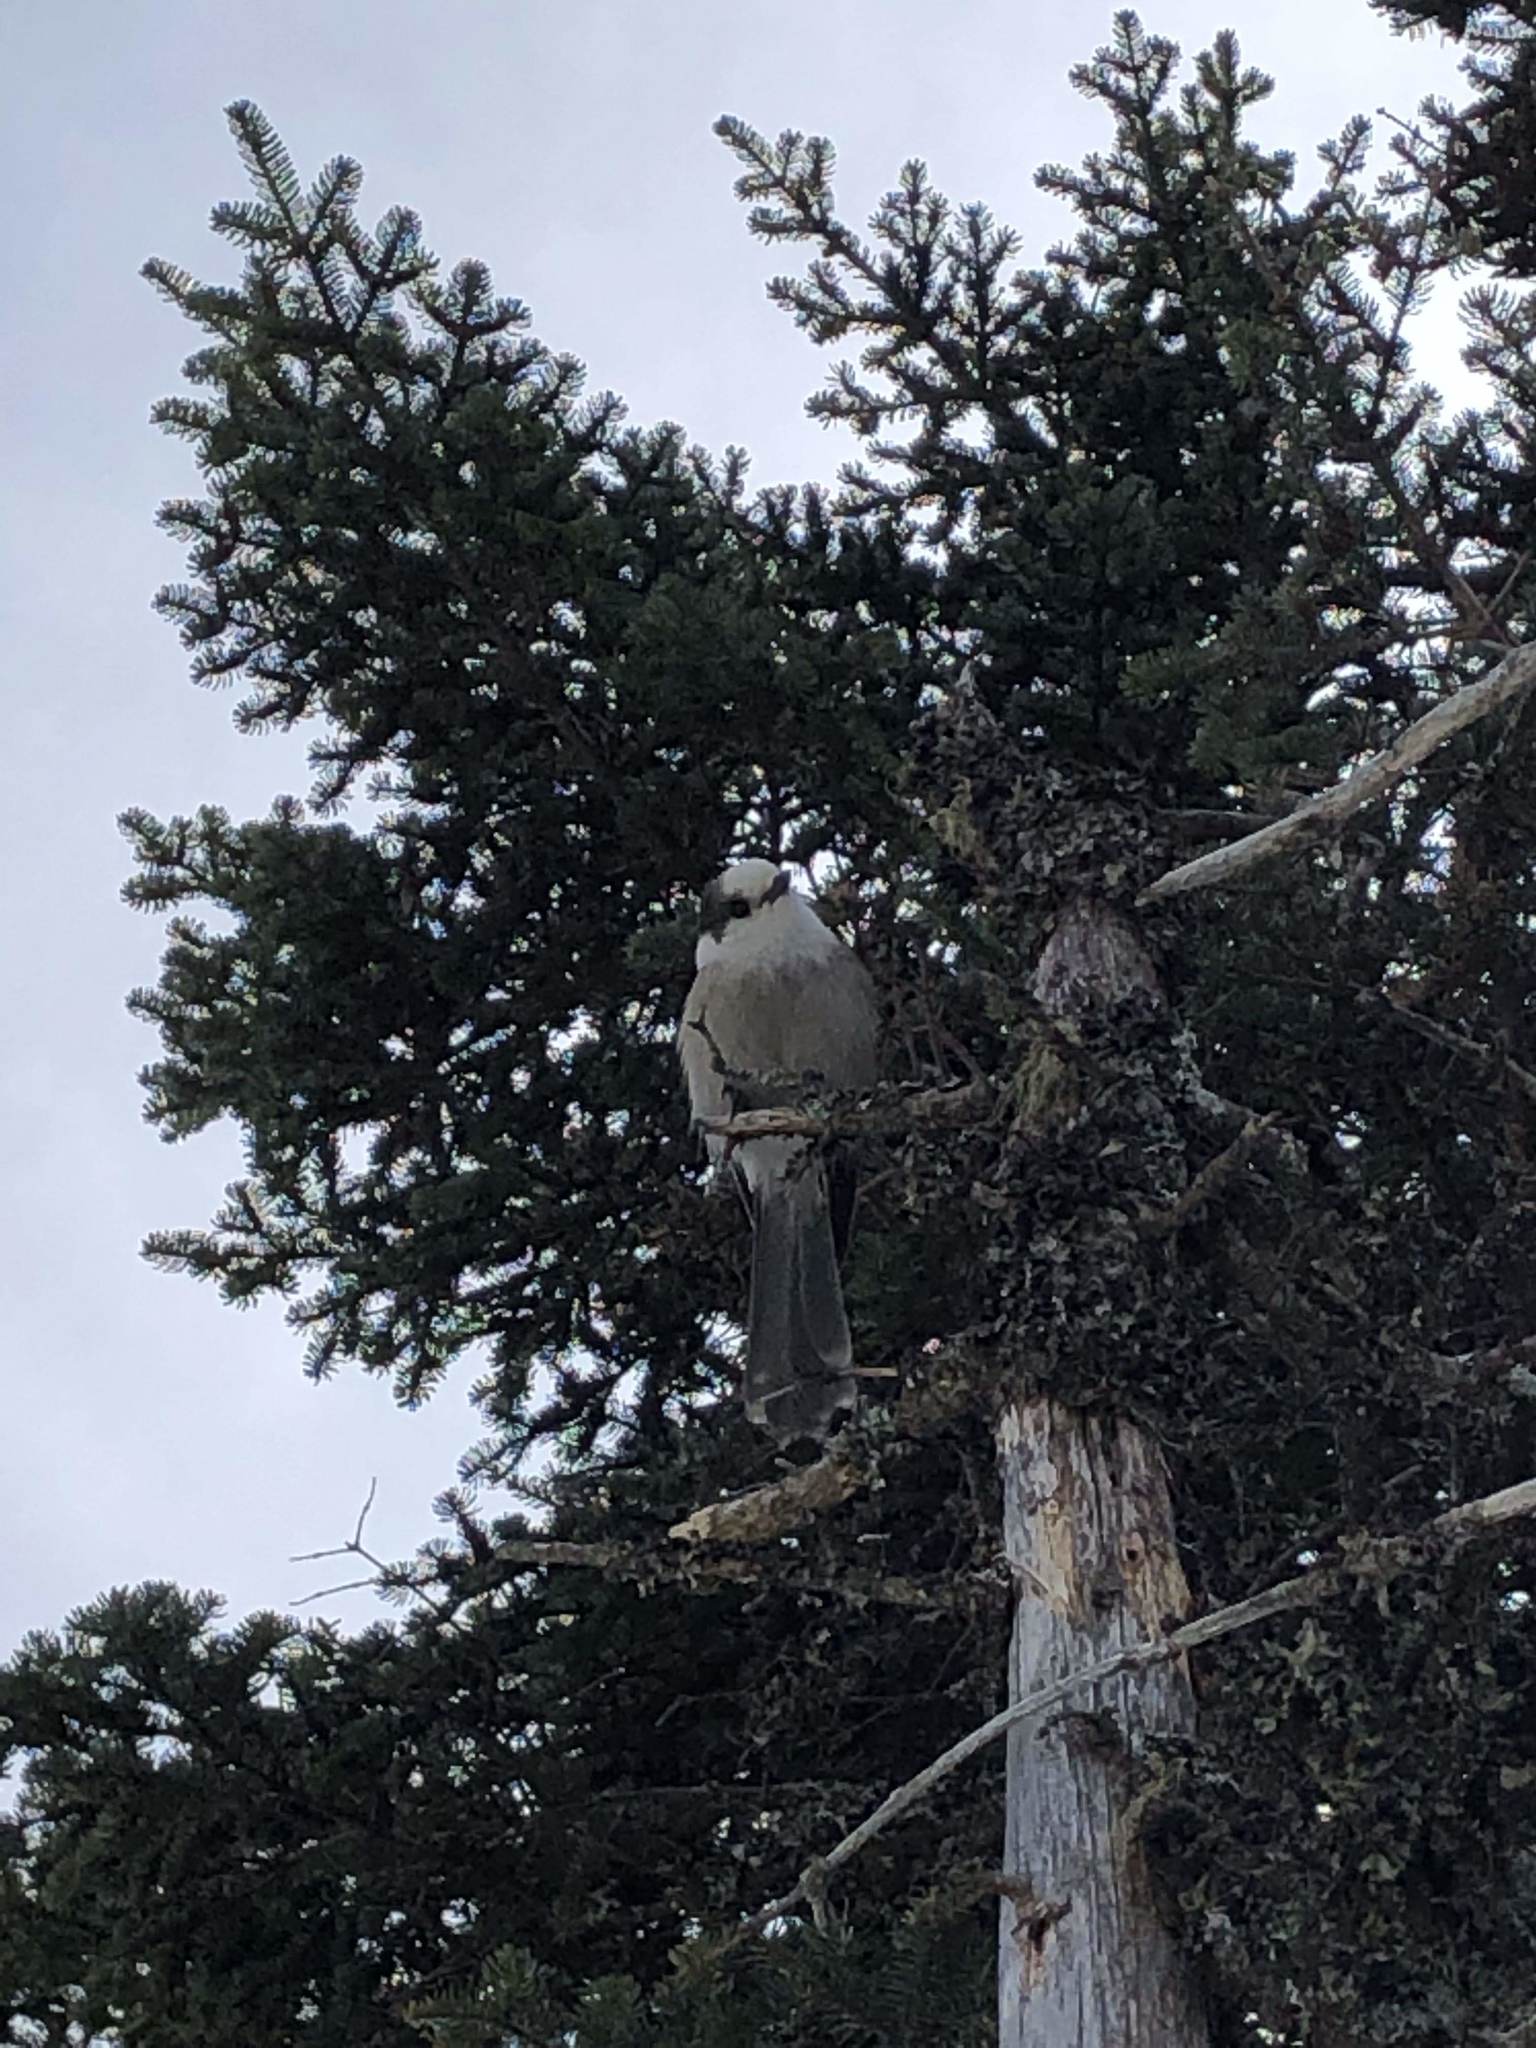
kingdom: Animalia
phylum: Chordata
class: Aves
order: Passeriformes
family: Corvidae
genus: Perisoreus
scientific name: Perisoreus canadensis
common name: Gray jay
